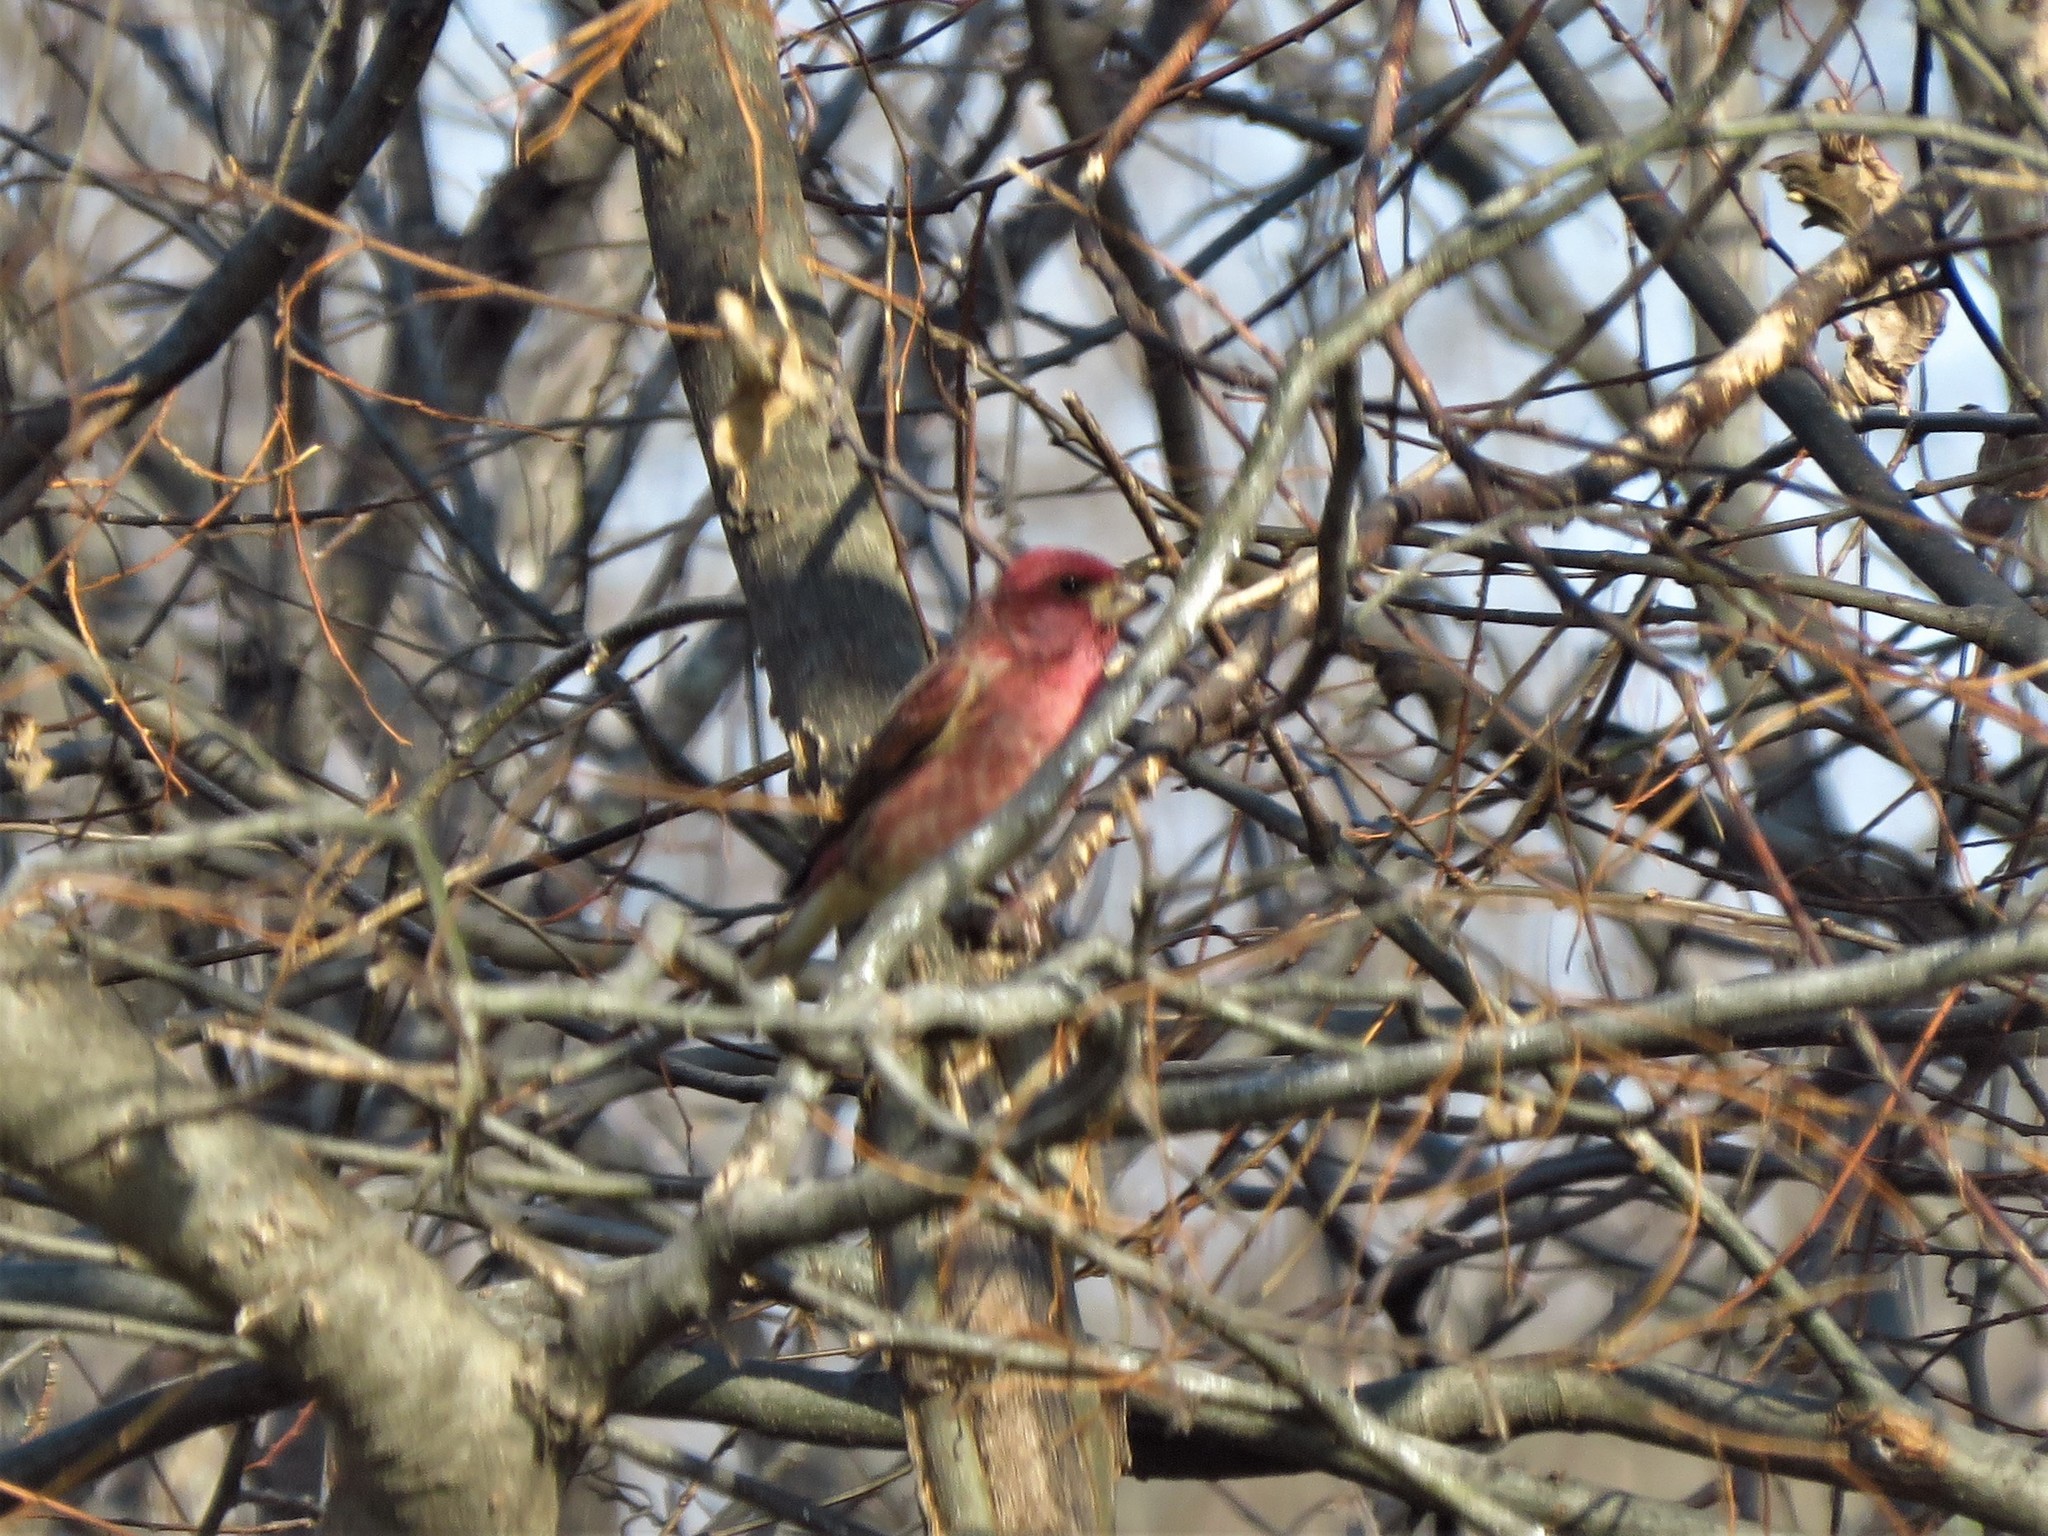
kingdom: Animalia
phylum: Chordata
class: Aves
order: Passeriformes
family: Fringillidae
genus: Haemorhous
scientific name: Haemorhous purpureus
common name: Purple finch
